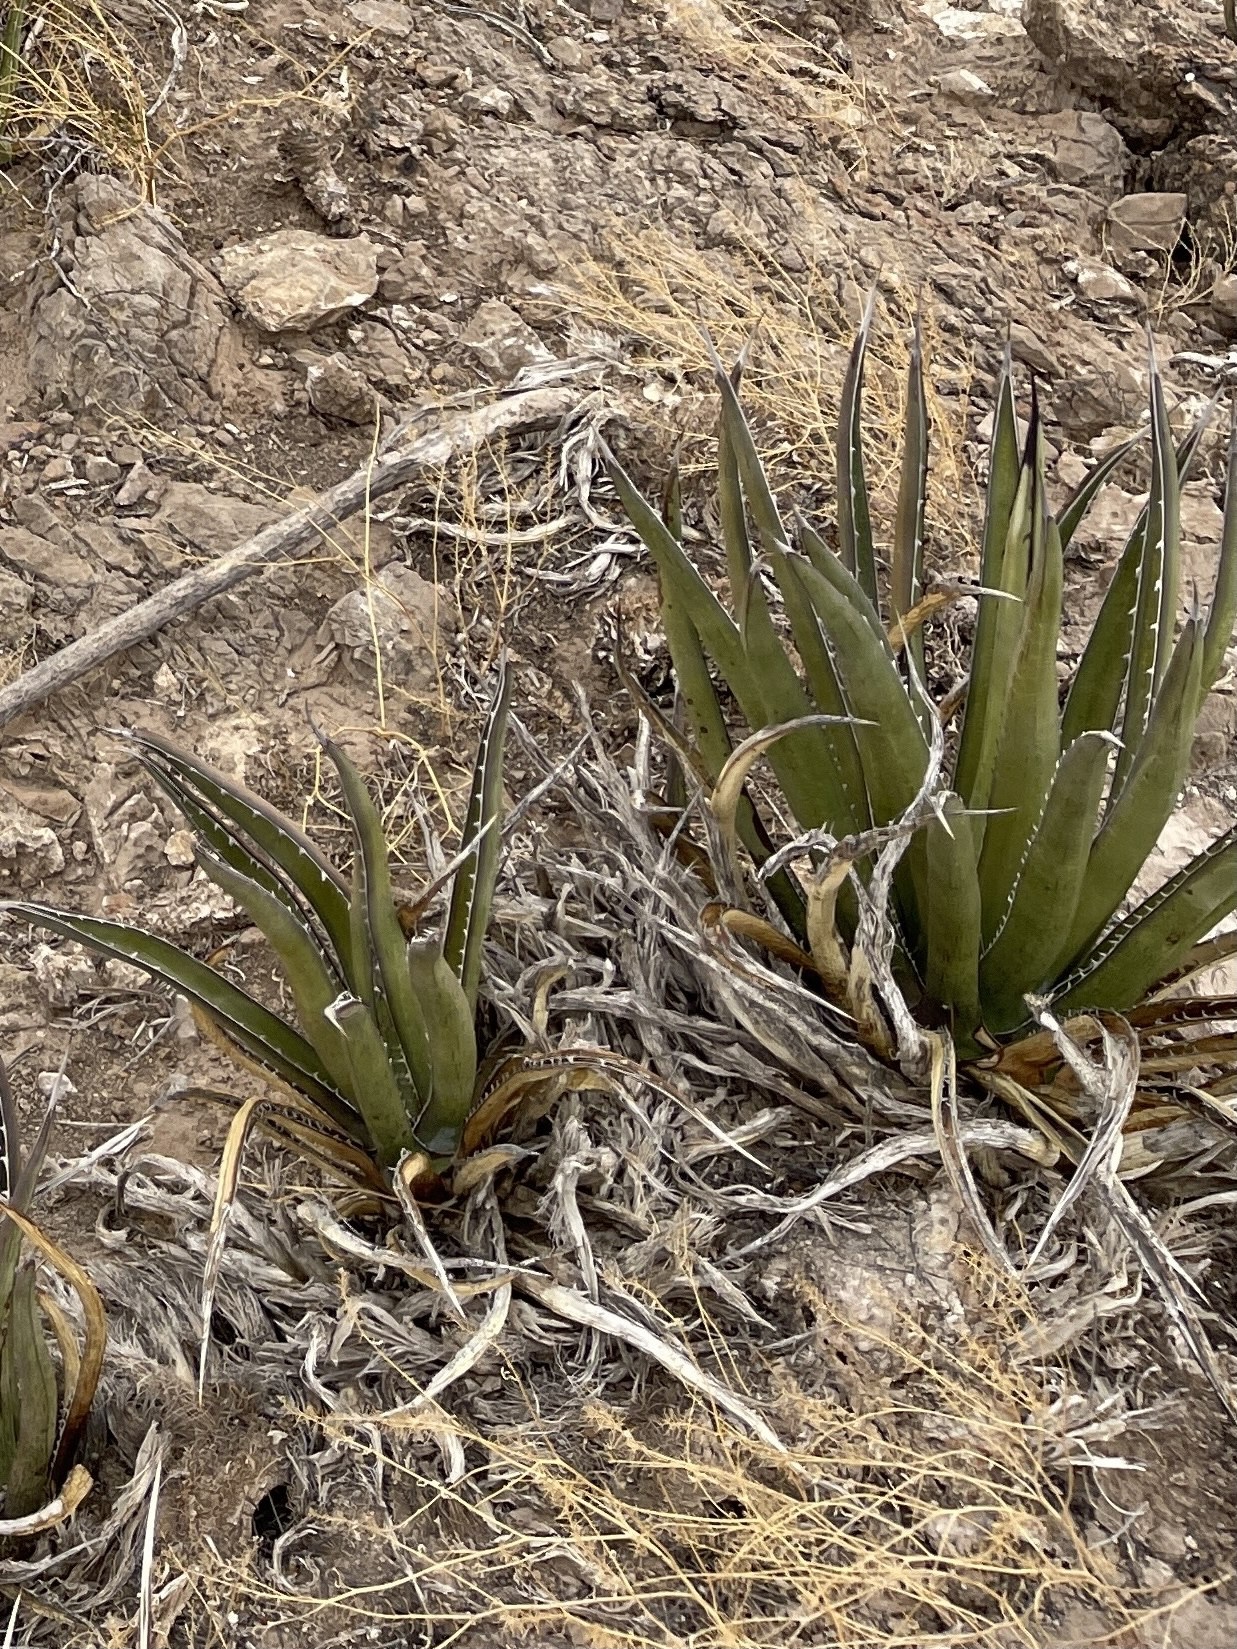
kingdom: Plantae
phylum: Tracheophyta
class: Liliopsida
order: Asparagales
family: Asparagaceae
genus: Agave
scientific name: Agave lechuguilla
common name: Lecheguilla agave
